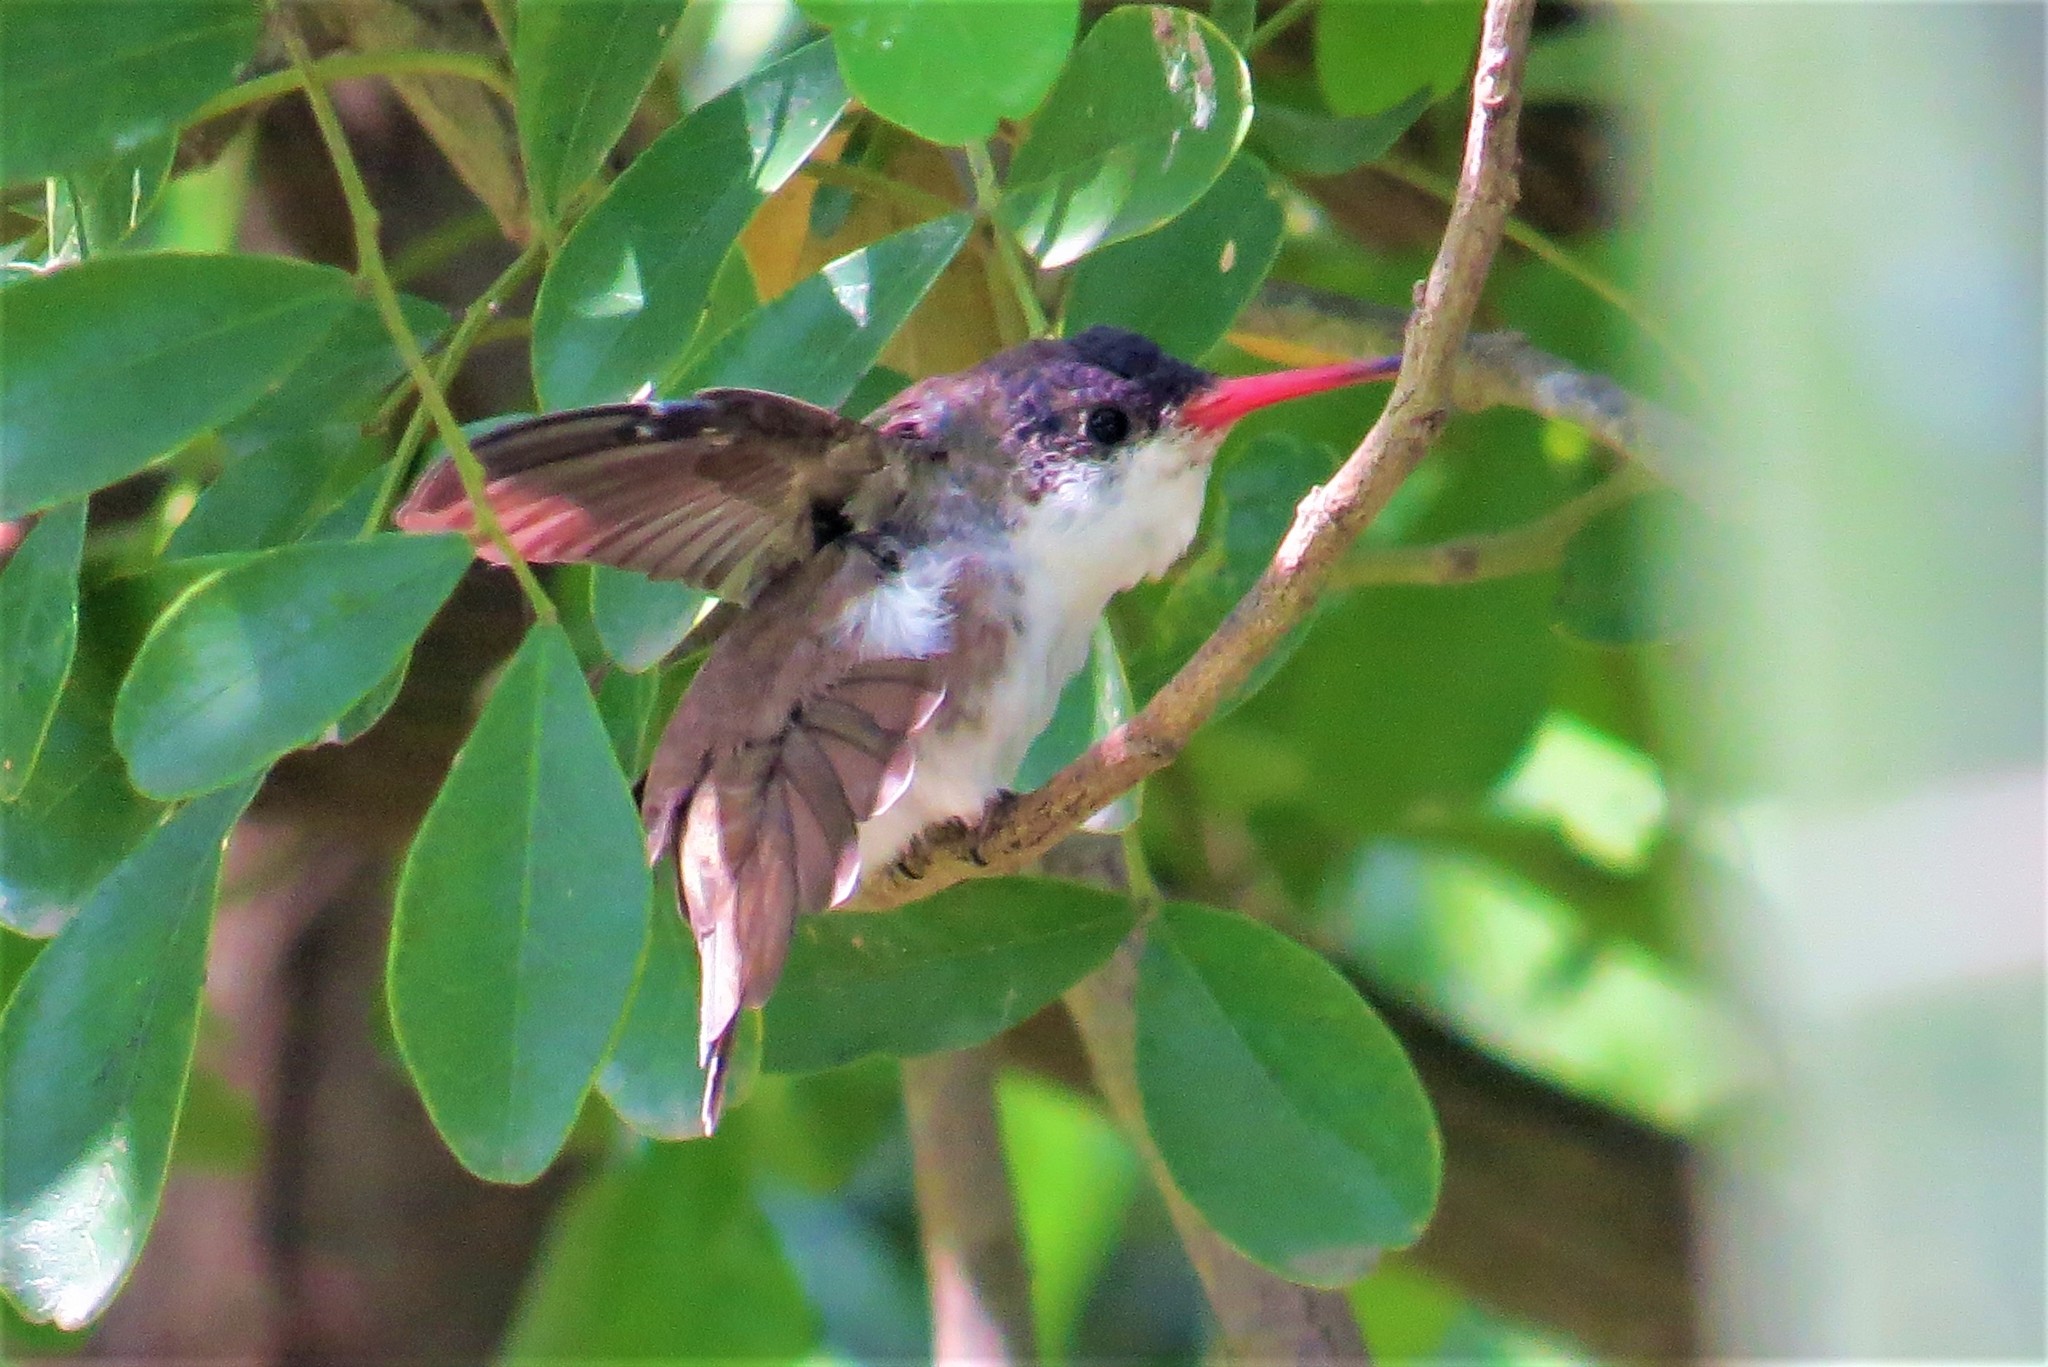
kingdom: Animalia
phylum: Chordata
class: Aves
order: Apodiformes
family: Trochilidae
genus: Leucolia
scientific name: Leucolia violiceps
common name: Violet-crowned hummingbird
